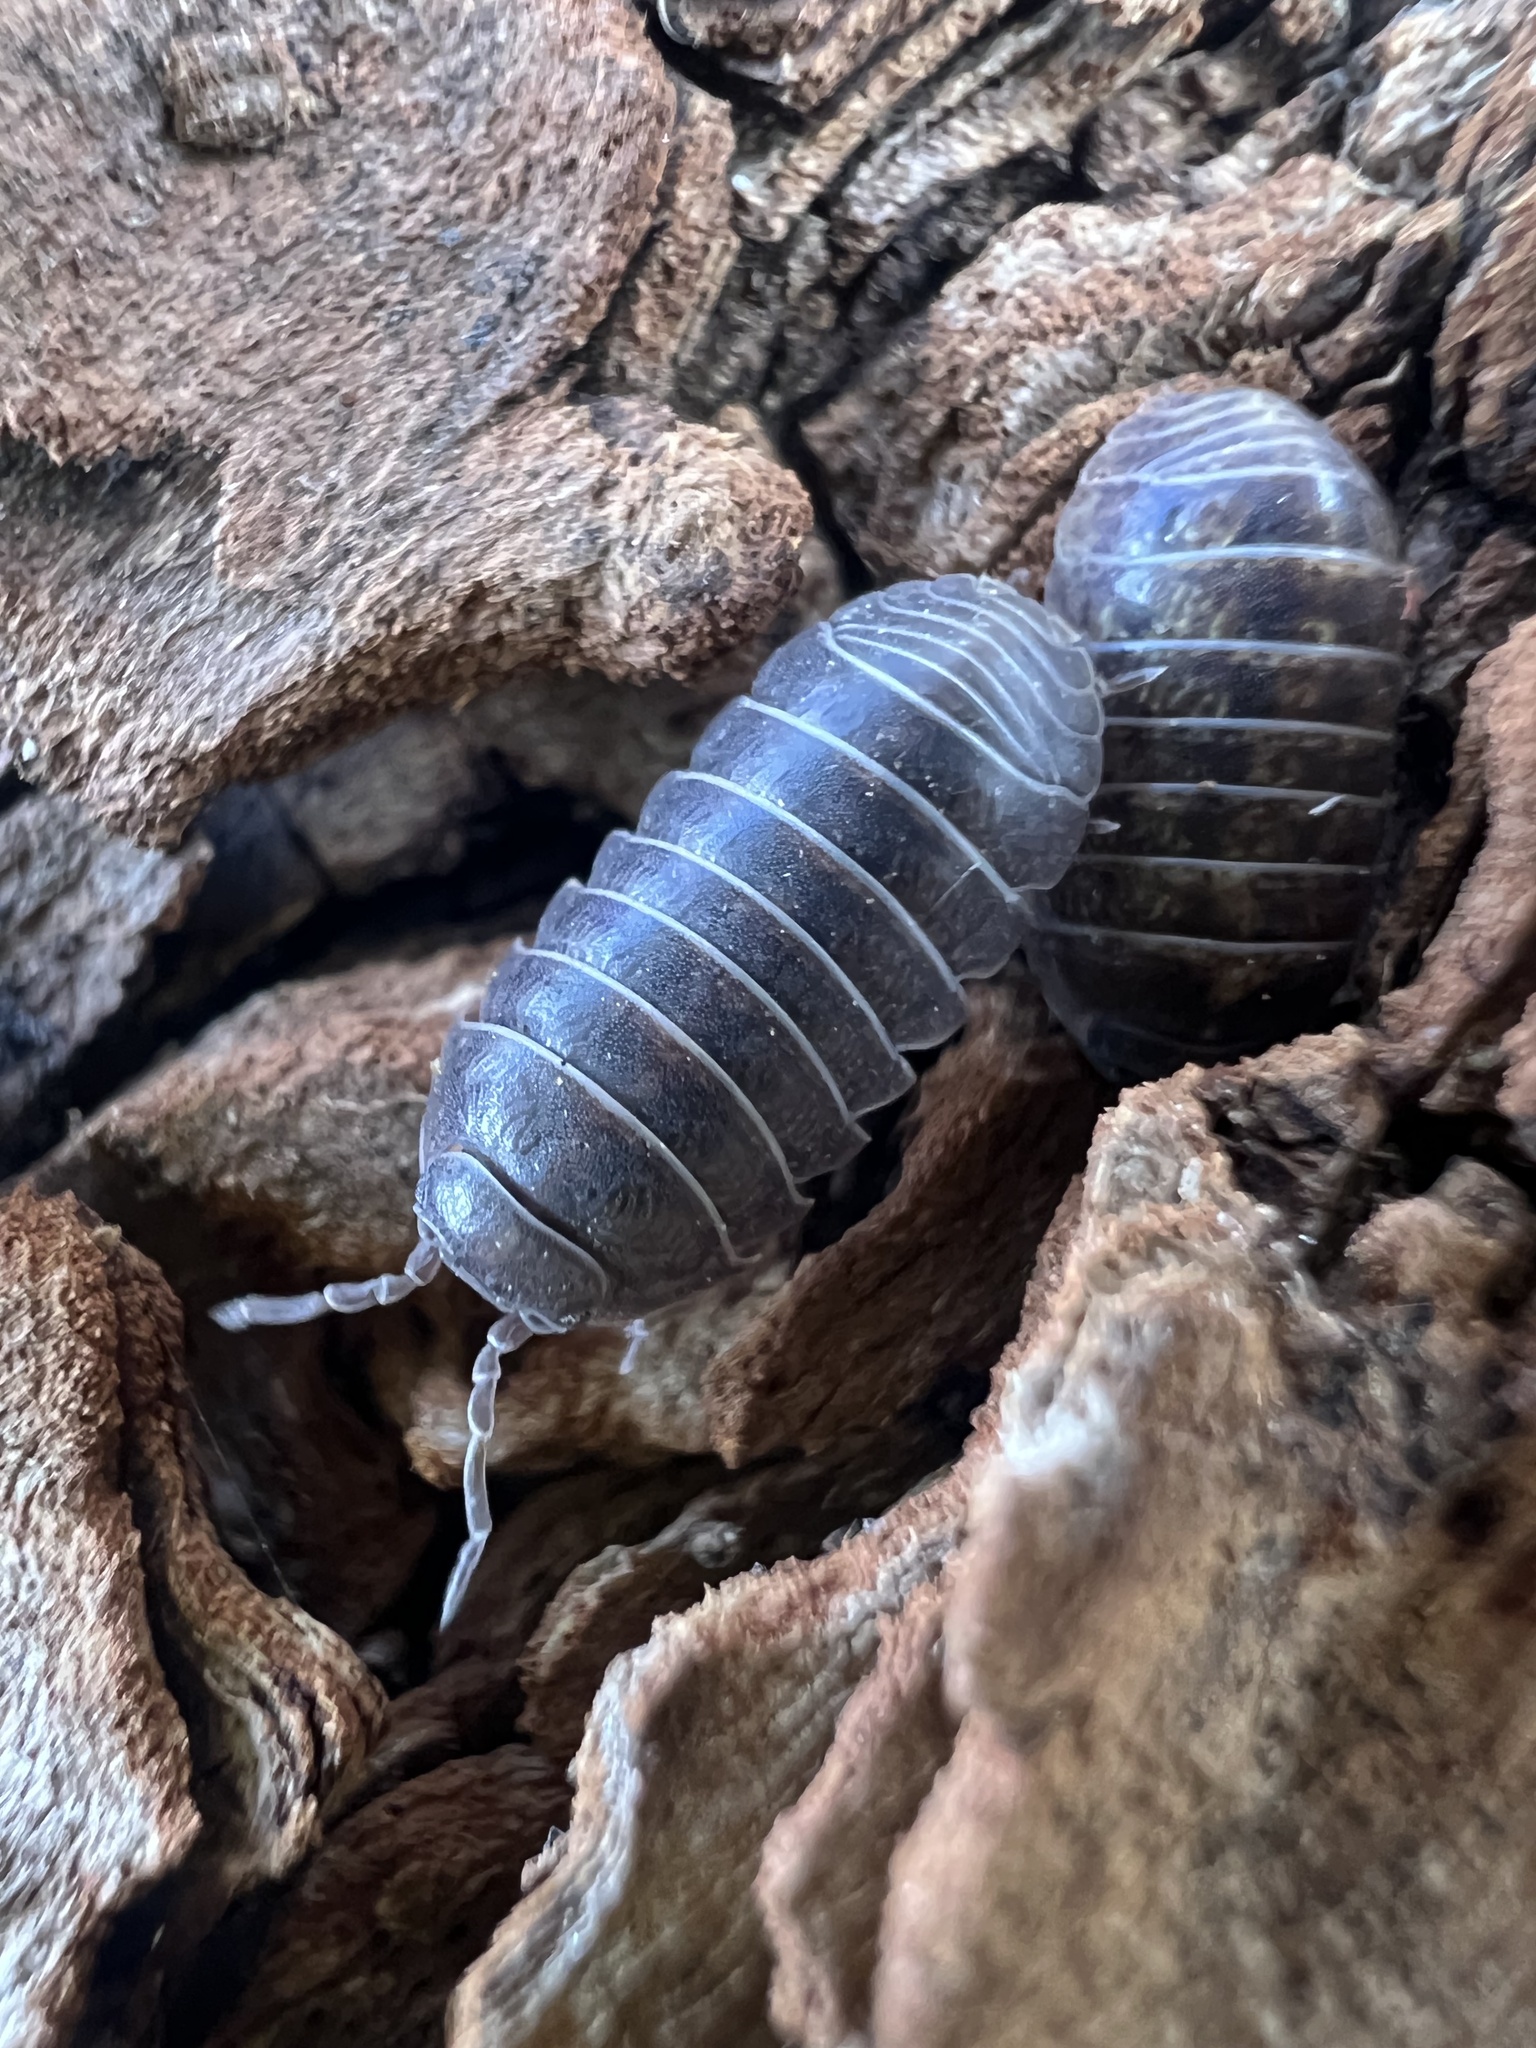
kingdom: Animalia
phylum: Arthropoda
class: Malacostraca
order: Isopoda
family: Armadillidiidae
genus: Armadillidium
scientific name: Armadillidium vulgare
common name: Common pill woodlouse
